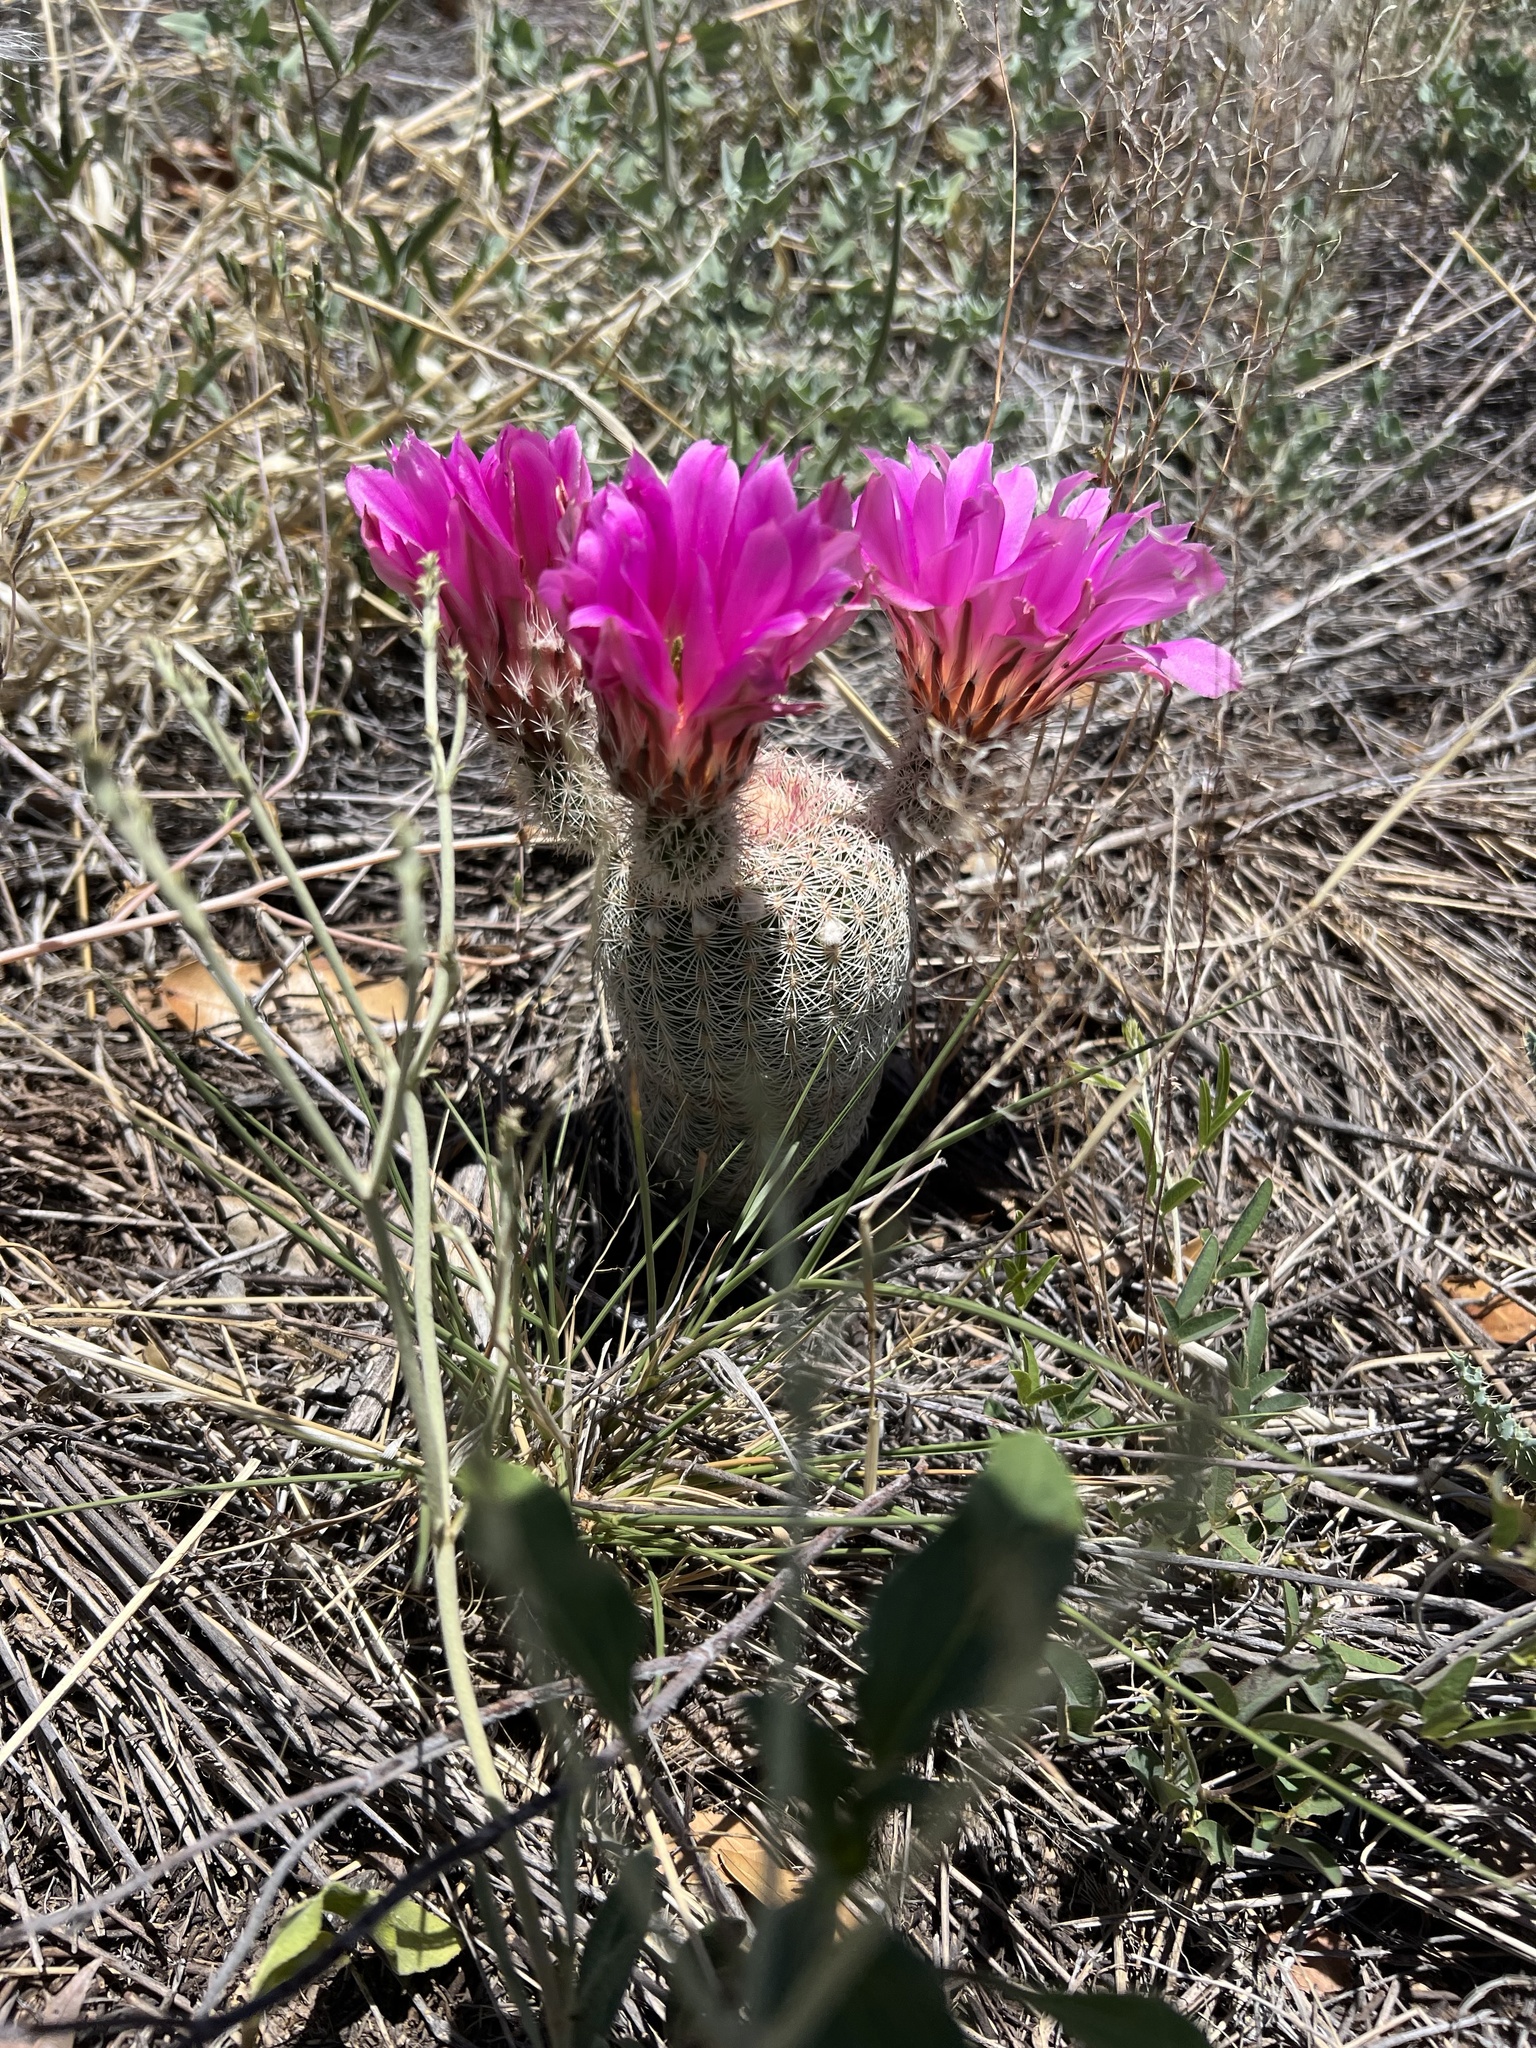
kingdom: Plantae
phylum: Tracheophyta
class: Magnoliopsida
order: Caryophyllales
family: Cactaceae
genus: Echinocereus
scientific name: Echinocereus rigidissimus
